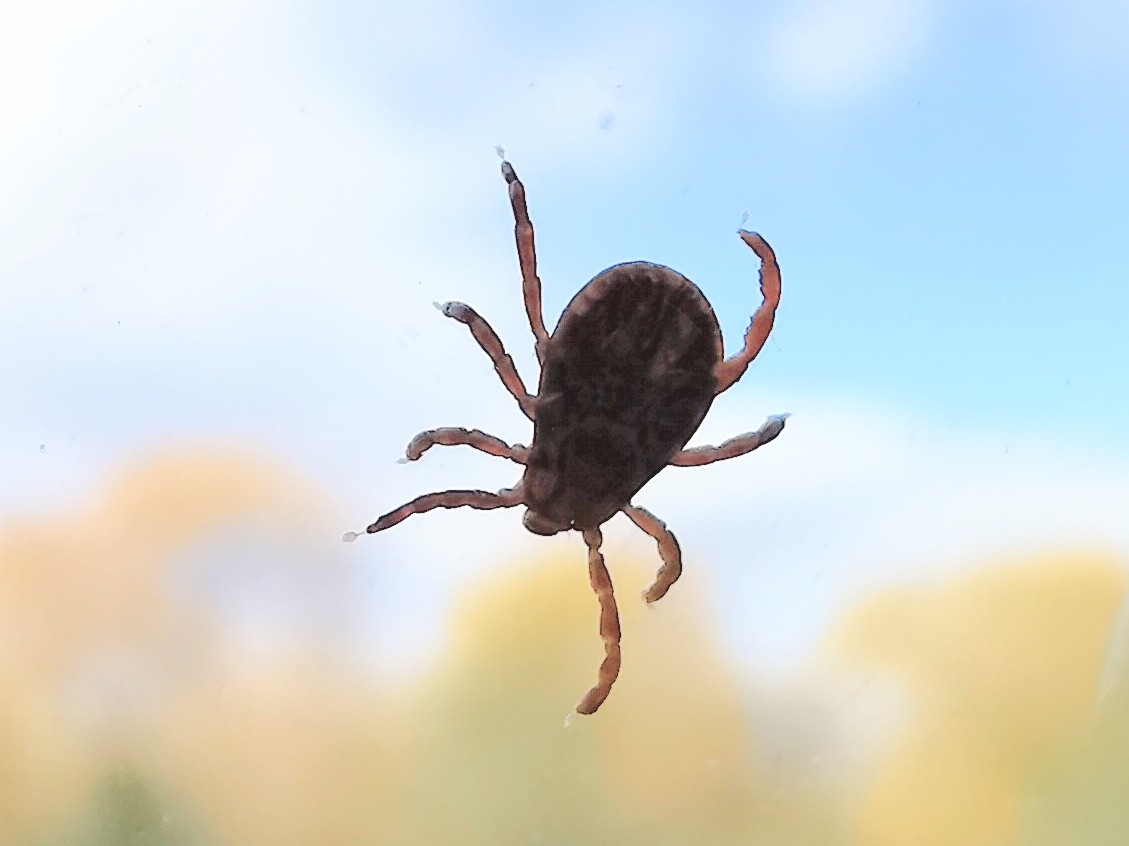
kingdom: Animalia
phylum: Arthropoda
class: Arachnida
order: Ixodida
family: Ixodidae
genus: Dermacentor
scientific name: Dermacentor variabilis
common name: American dog tick
